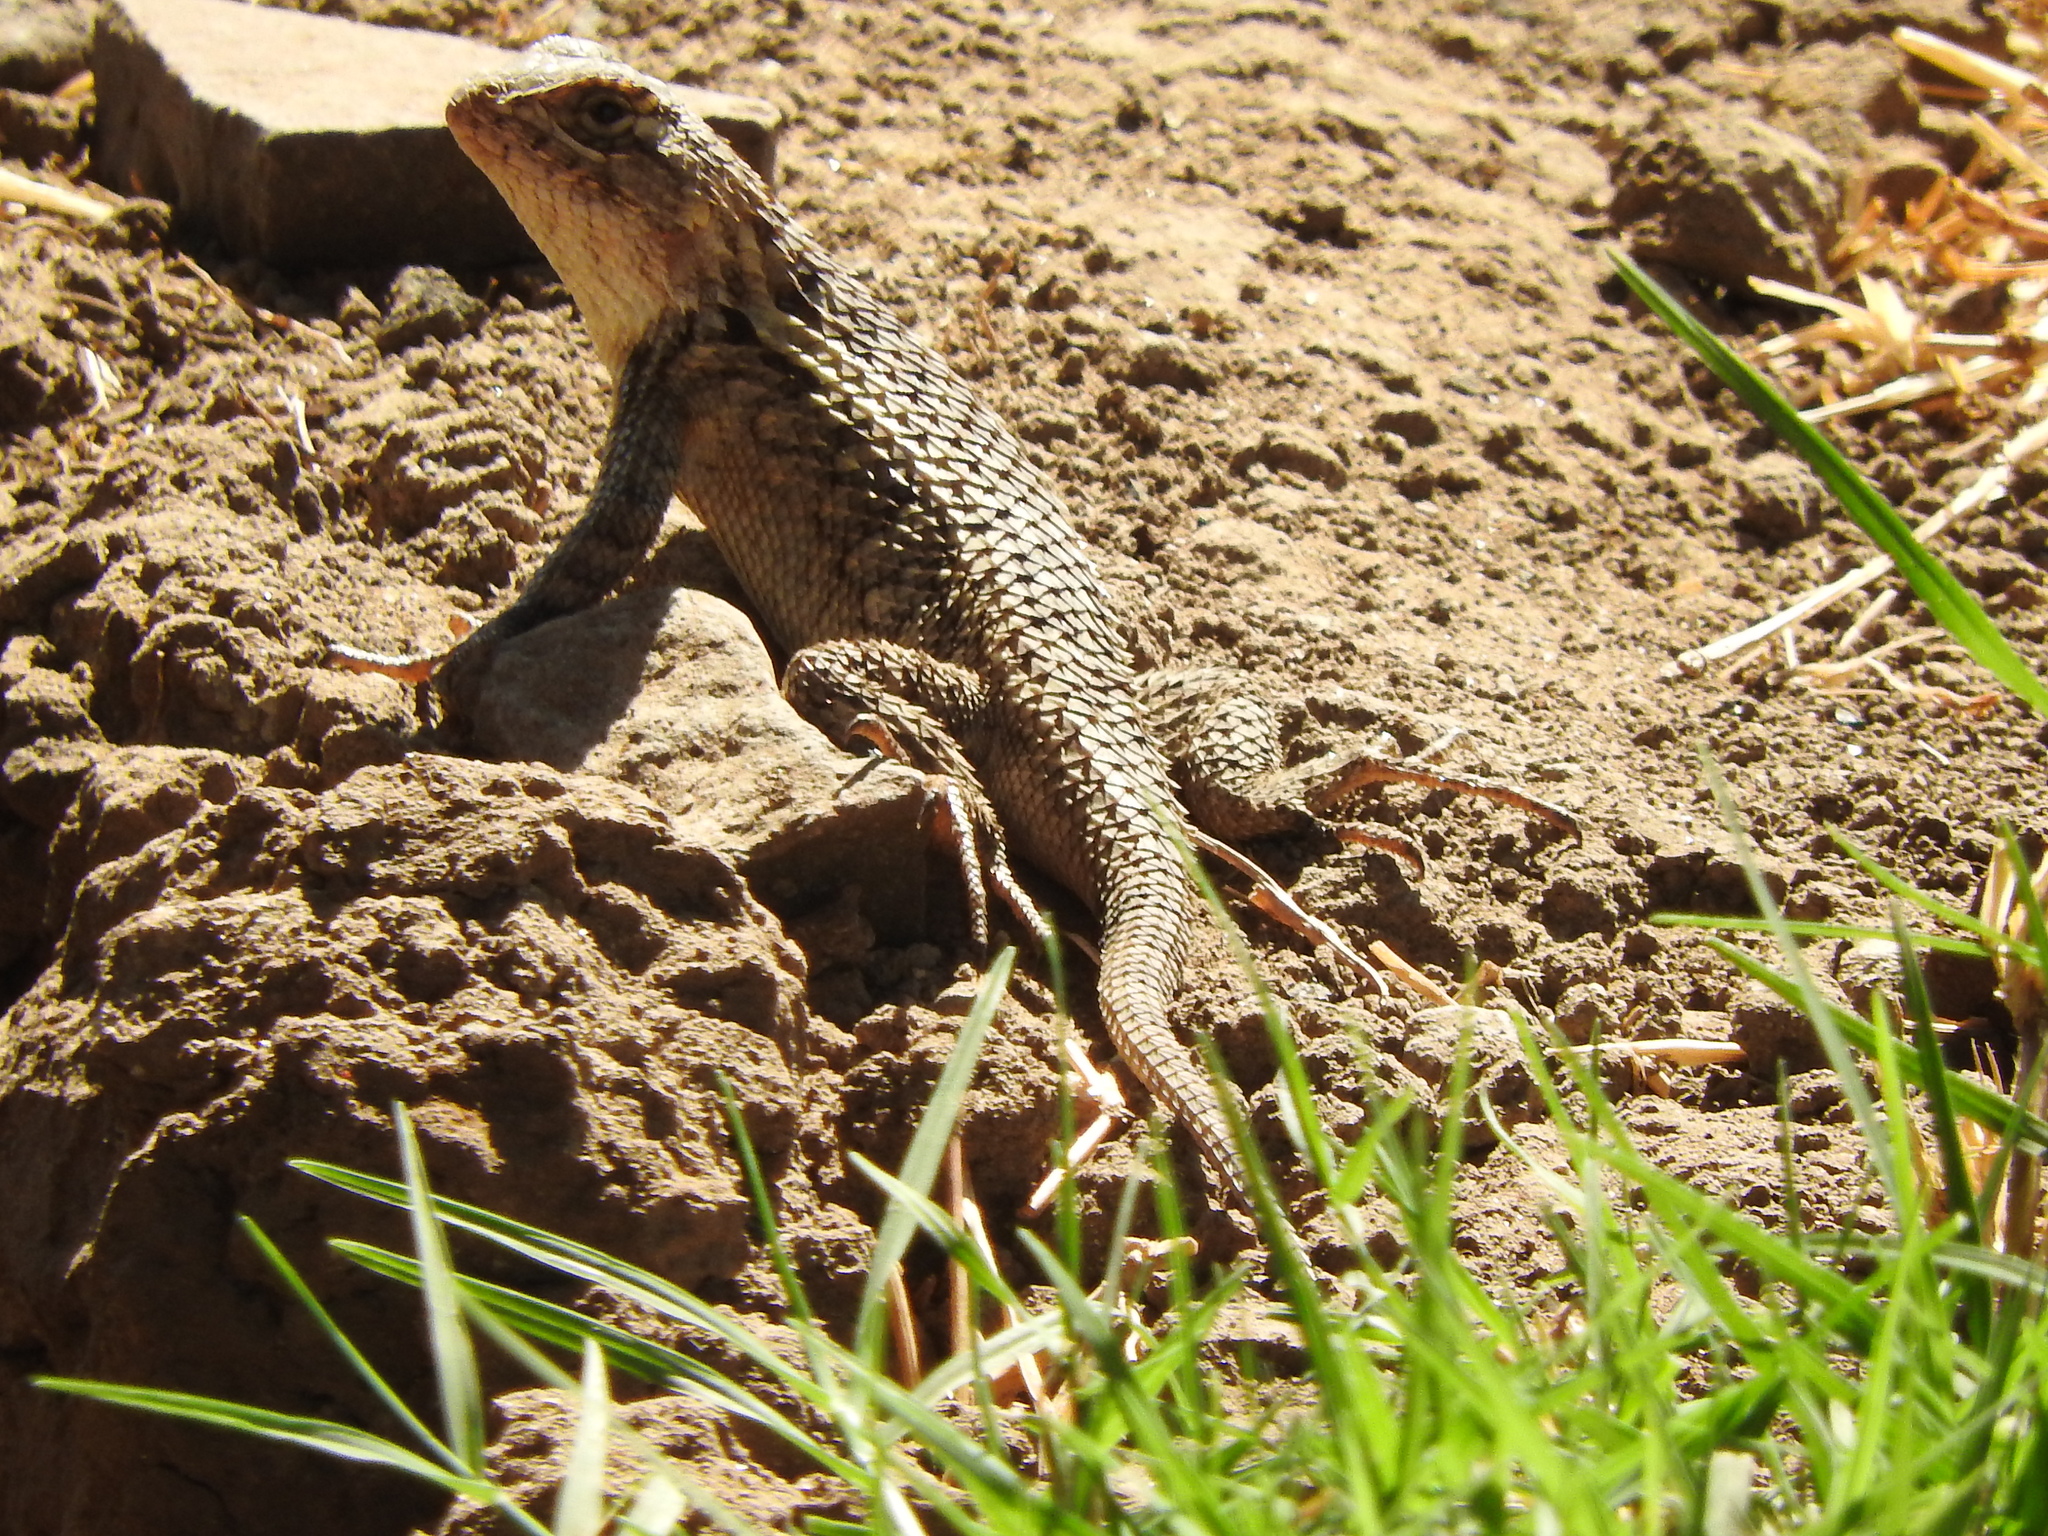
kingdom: Animalia
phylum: Chordata
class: Squamata
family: Phrynosomatidae
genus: Sceloporus
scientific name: Sceloporus spinosus
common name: Blue-spotted spiny lizard [caeruleopunctatus]
